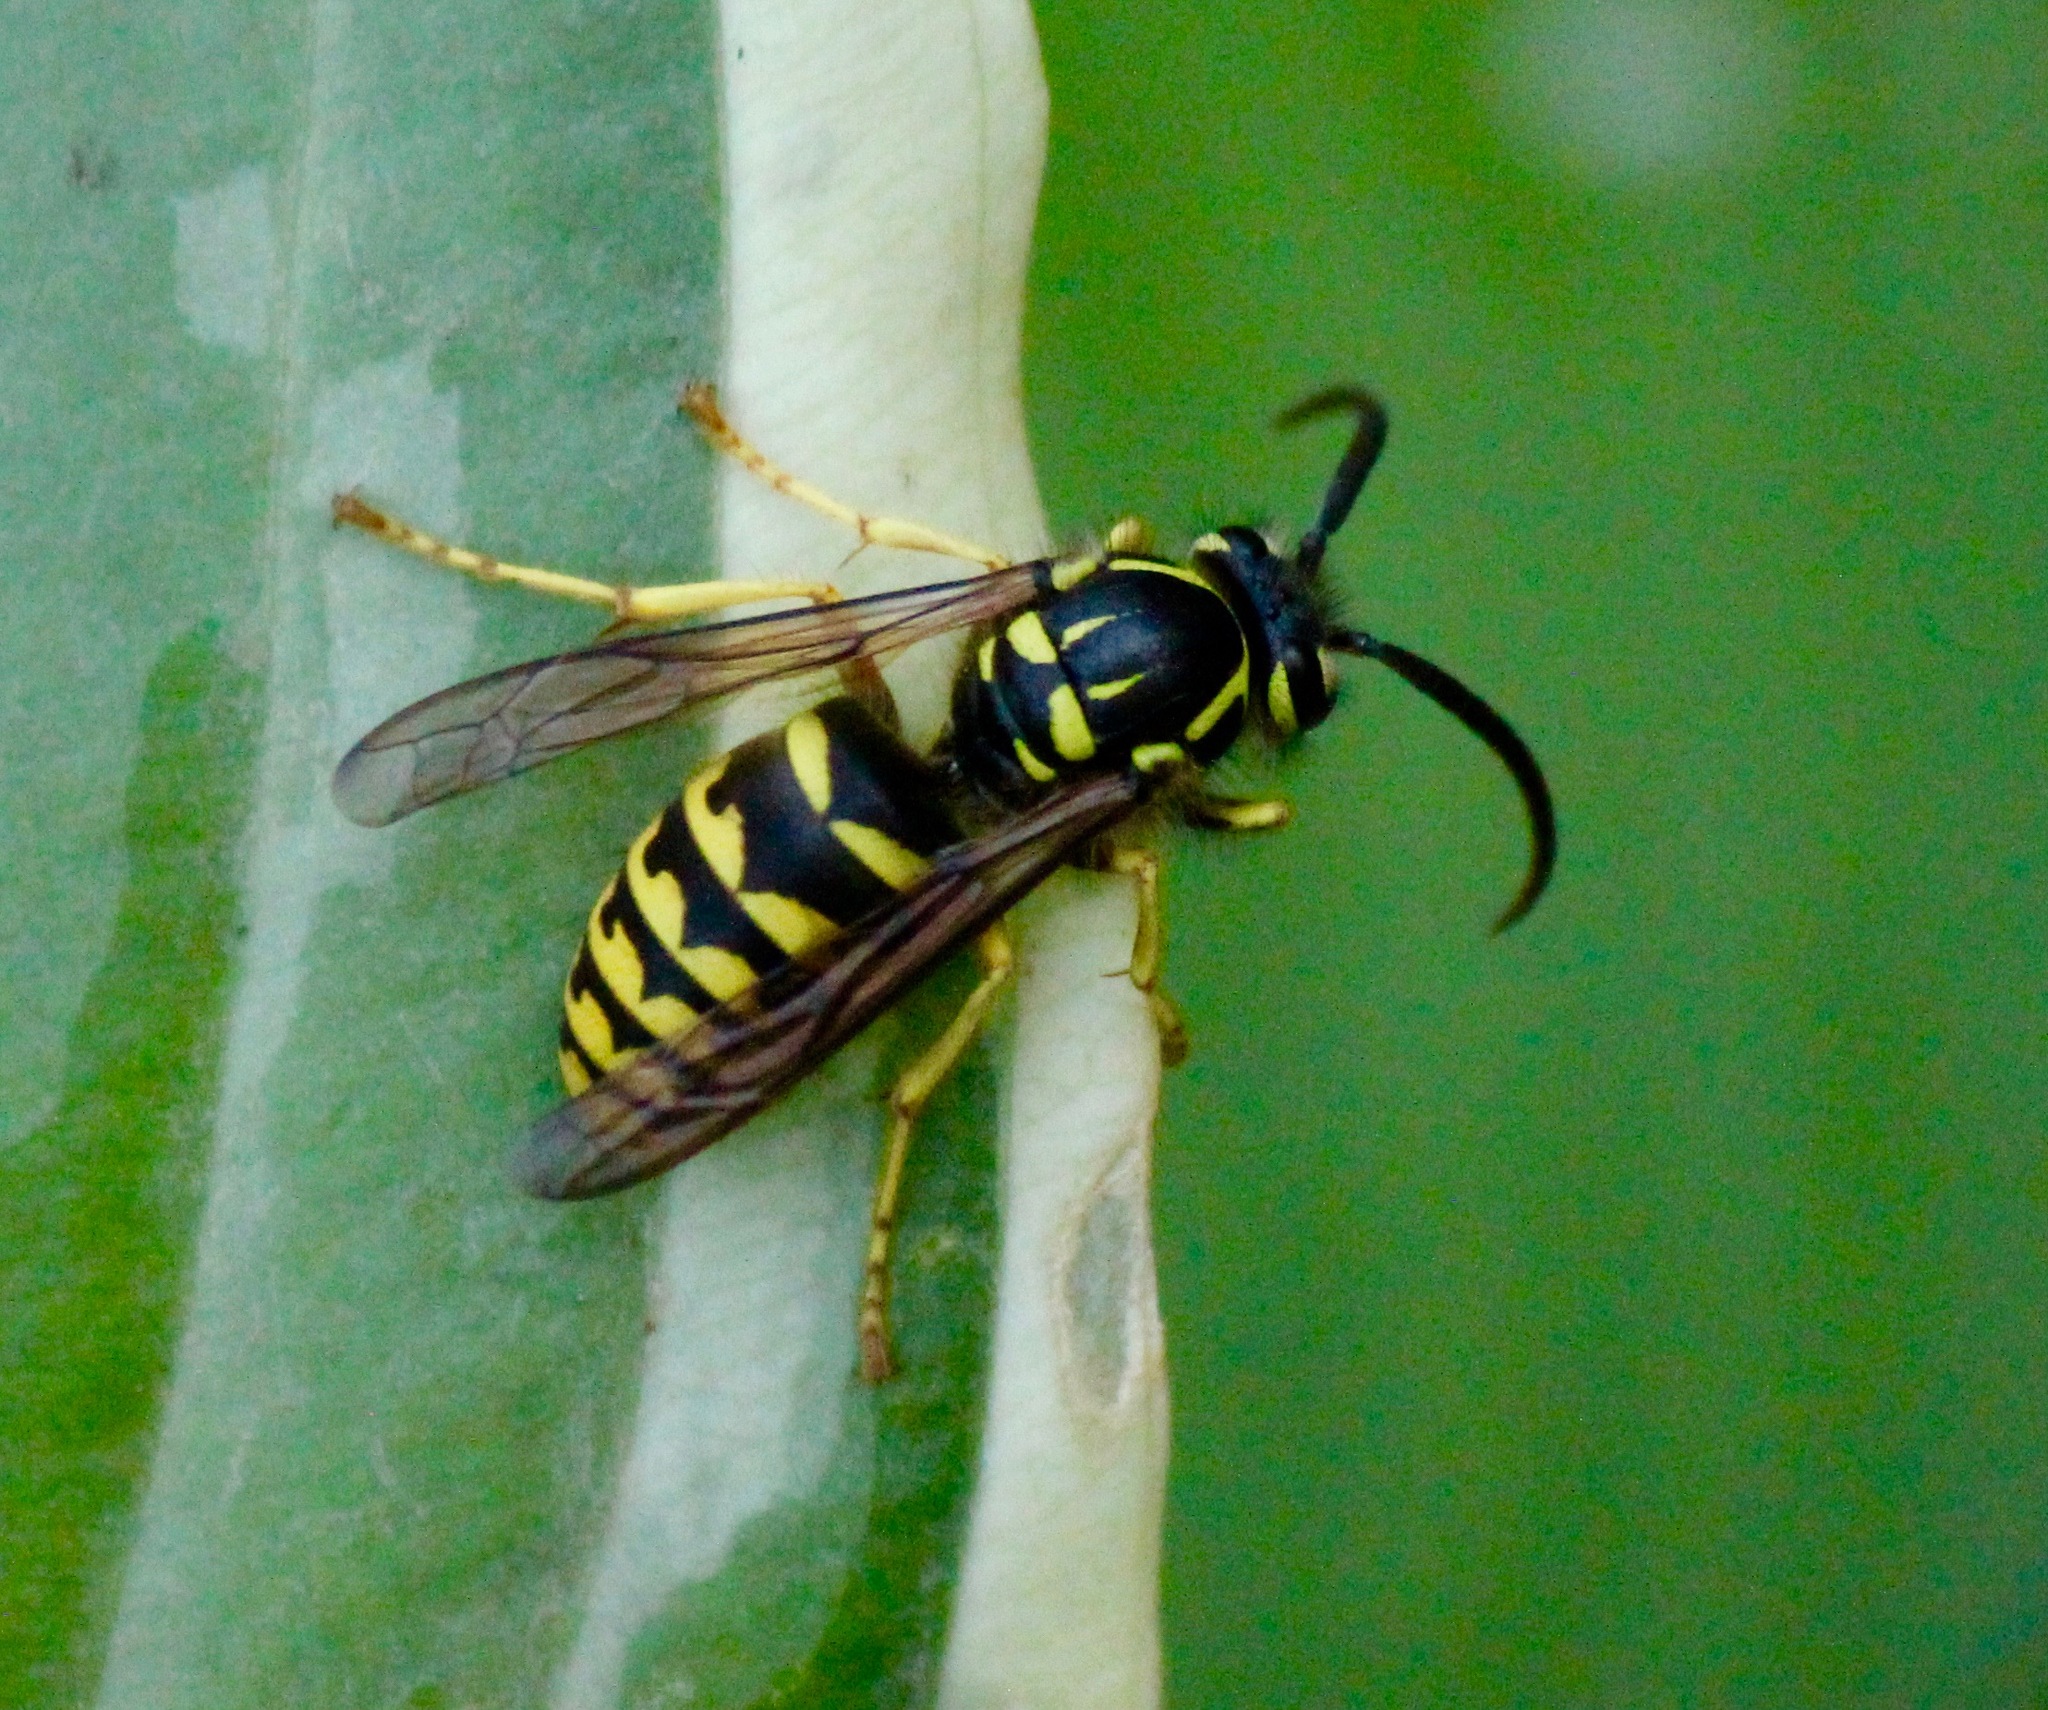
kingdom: Animalia
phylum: Arthropoda
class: Insecta
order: Hymenoptera
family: Vespidae
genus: Dolichovespula
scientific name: Dolichovespula arenaria
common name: Aerial yellowjacket
